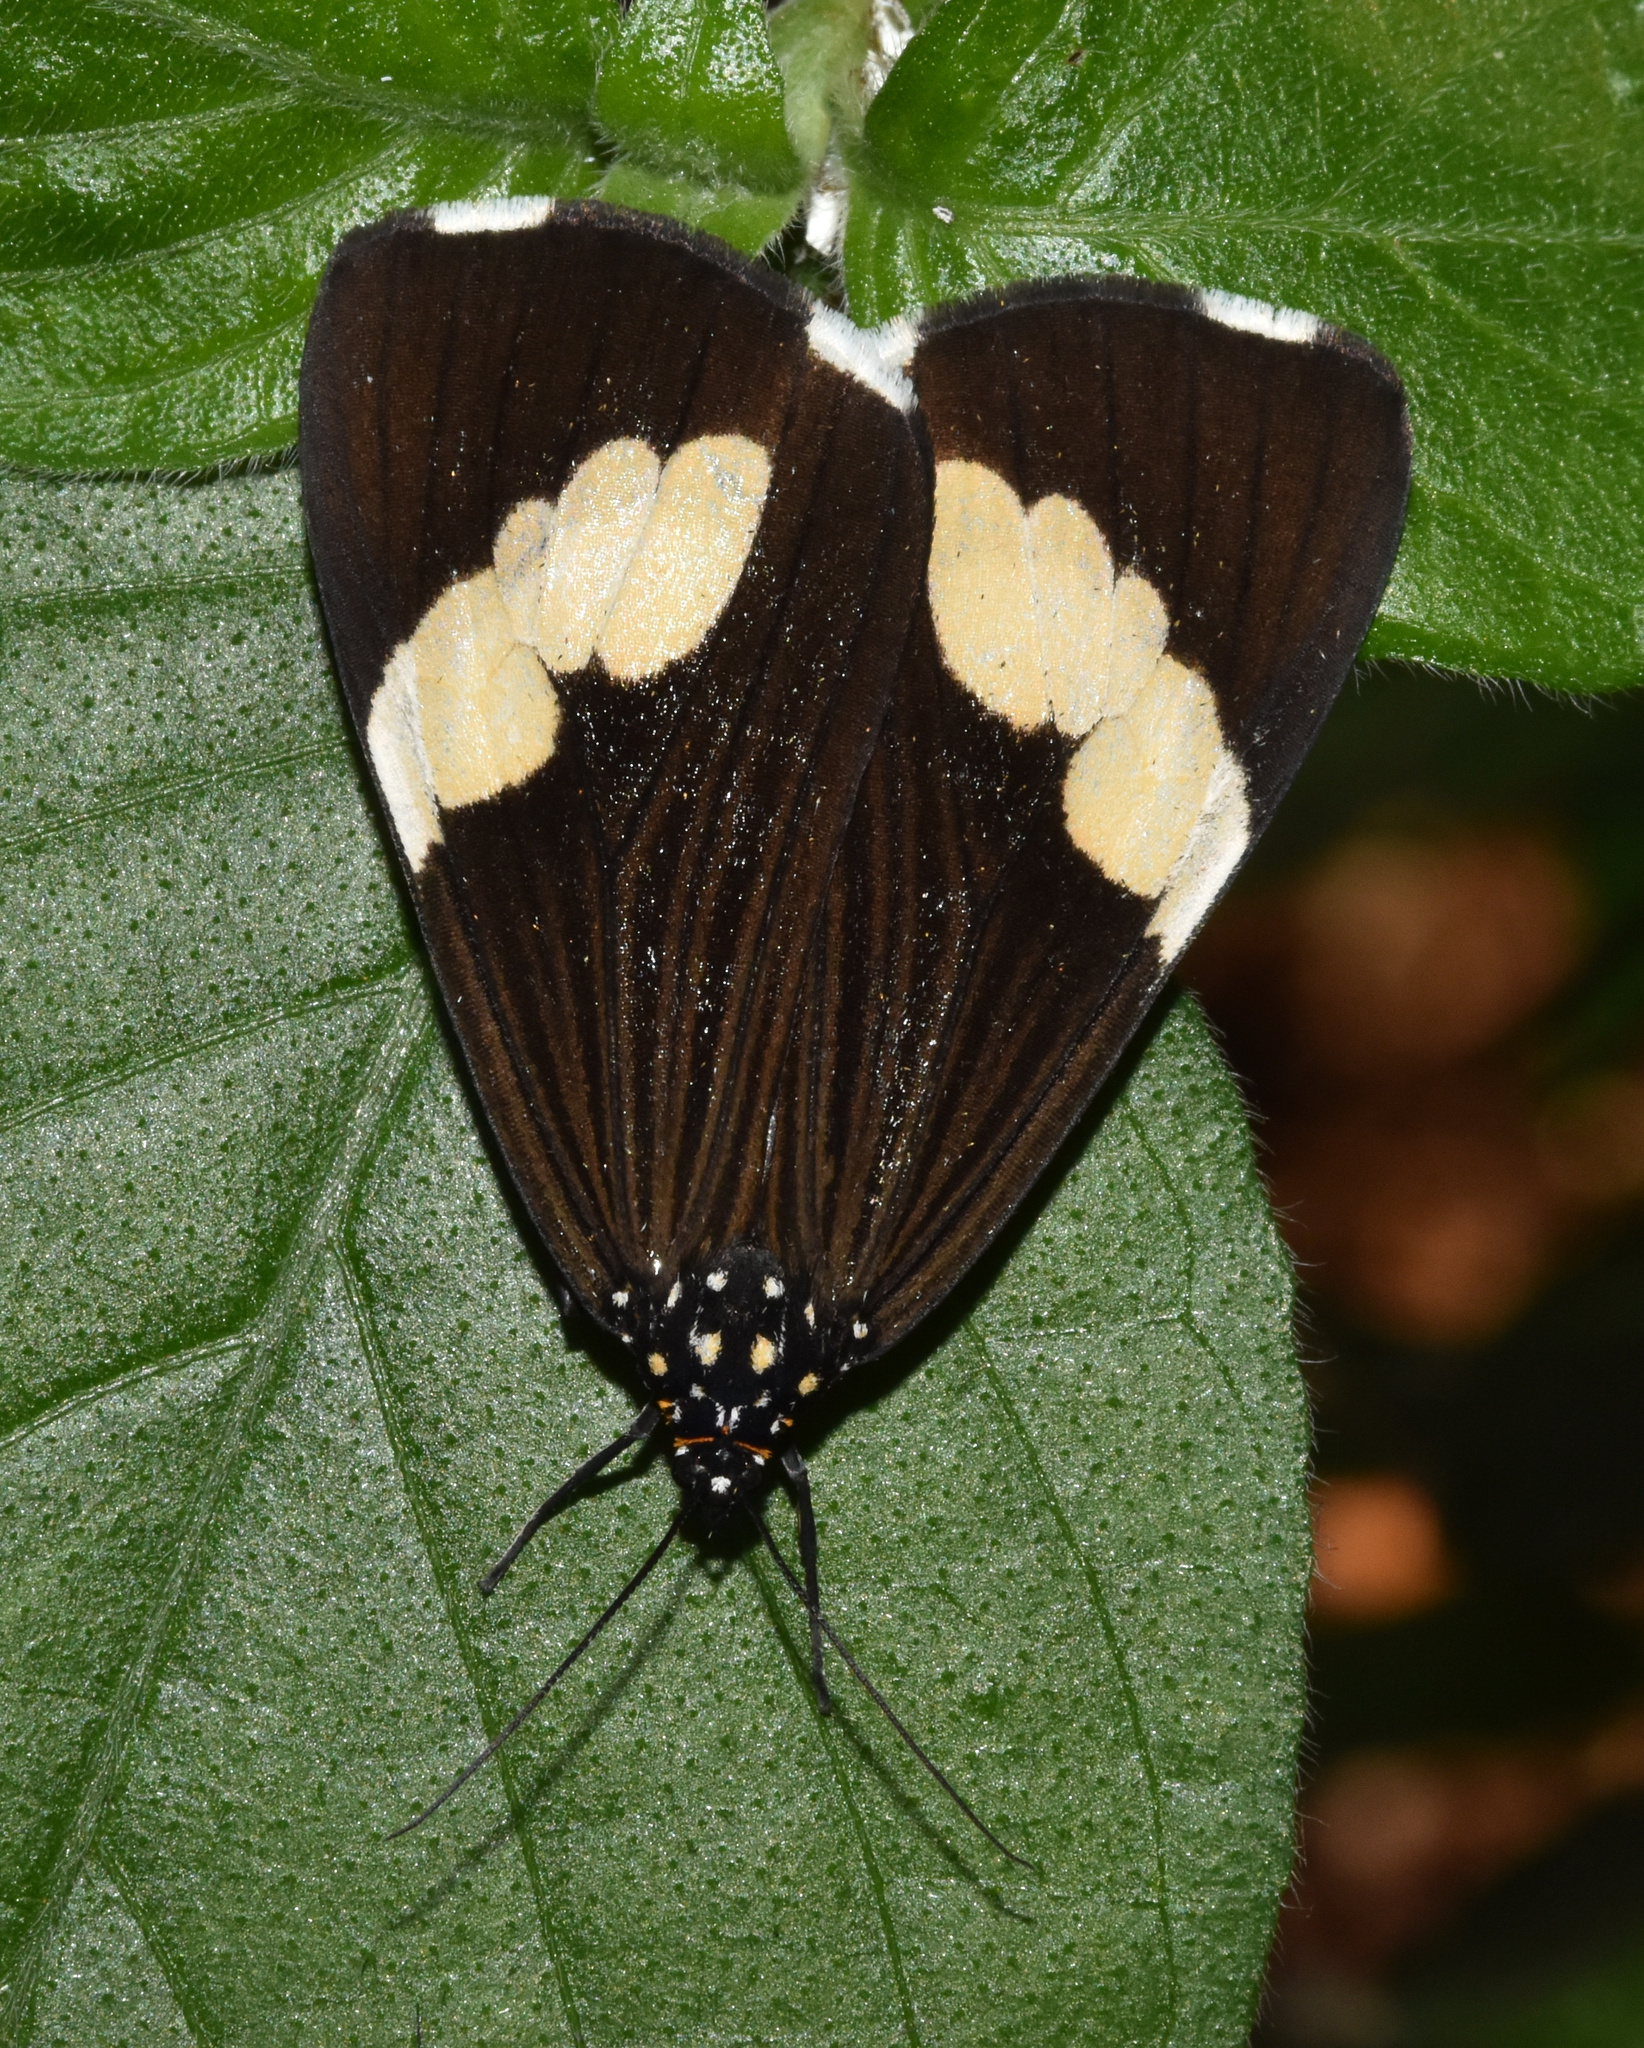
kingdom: Animalia
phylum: Arthropoda
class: Insecta
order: Lepidoptera
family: Erebidae
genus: Nyctemera
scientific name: Nyctemera
